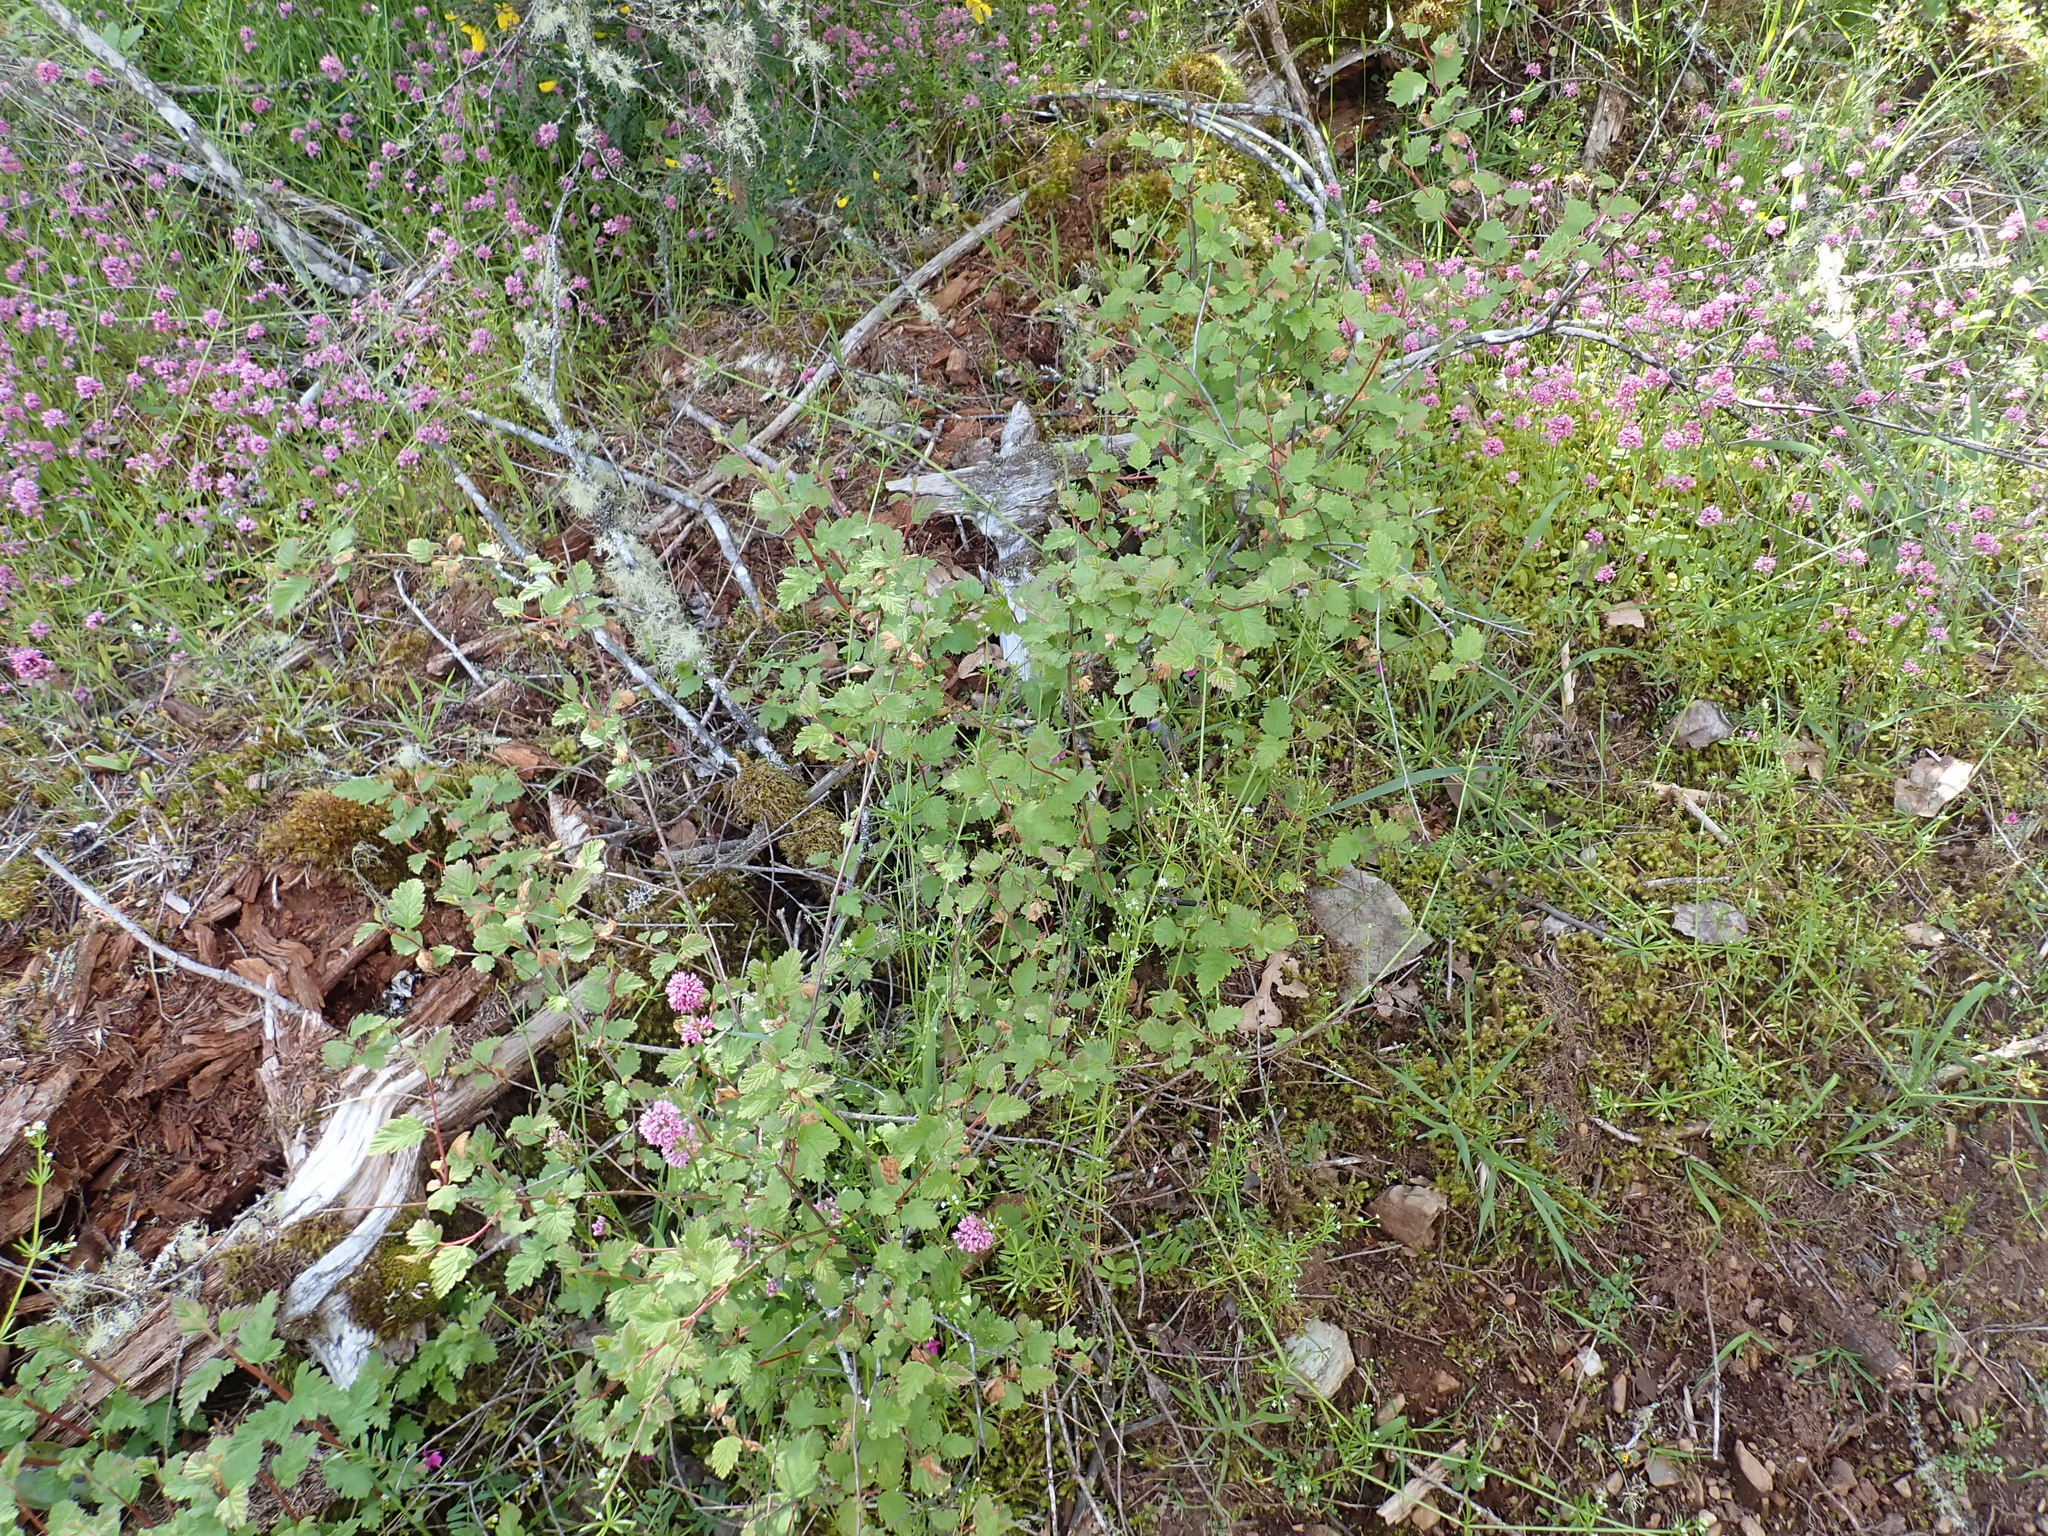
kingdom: Plantae
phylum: Tracheophyta
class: Magnoliopsida
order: Rosales
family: Rosaceae
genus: Holodiscus
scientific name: Holodiscus discolor
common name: Oceanspray
